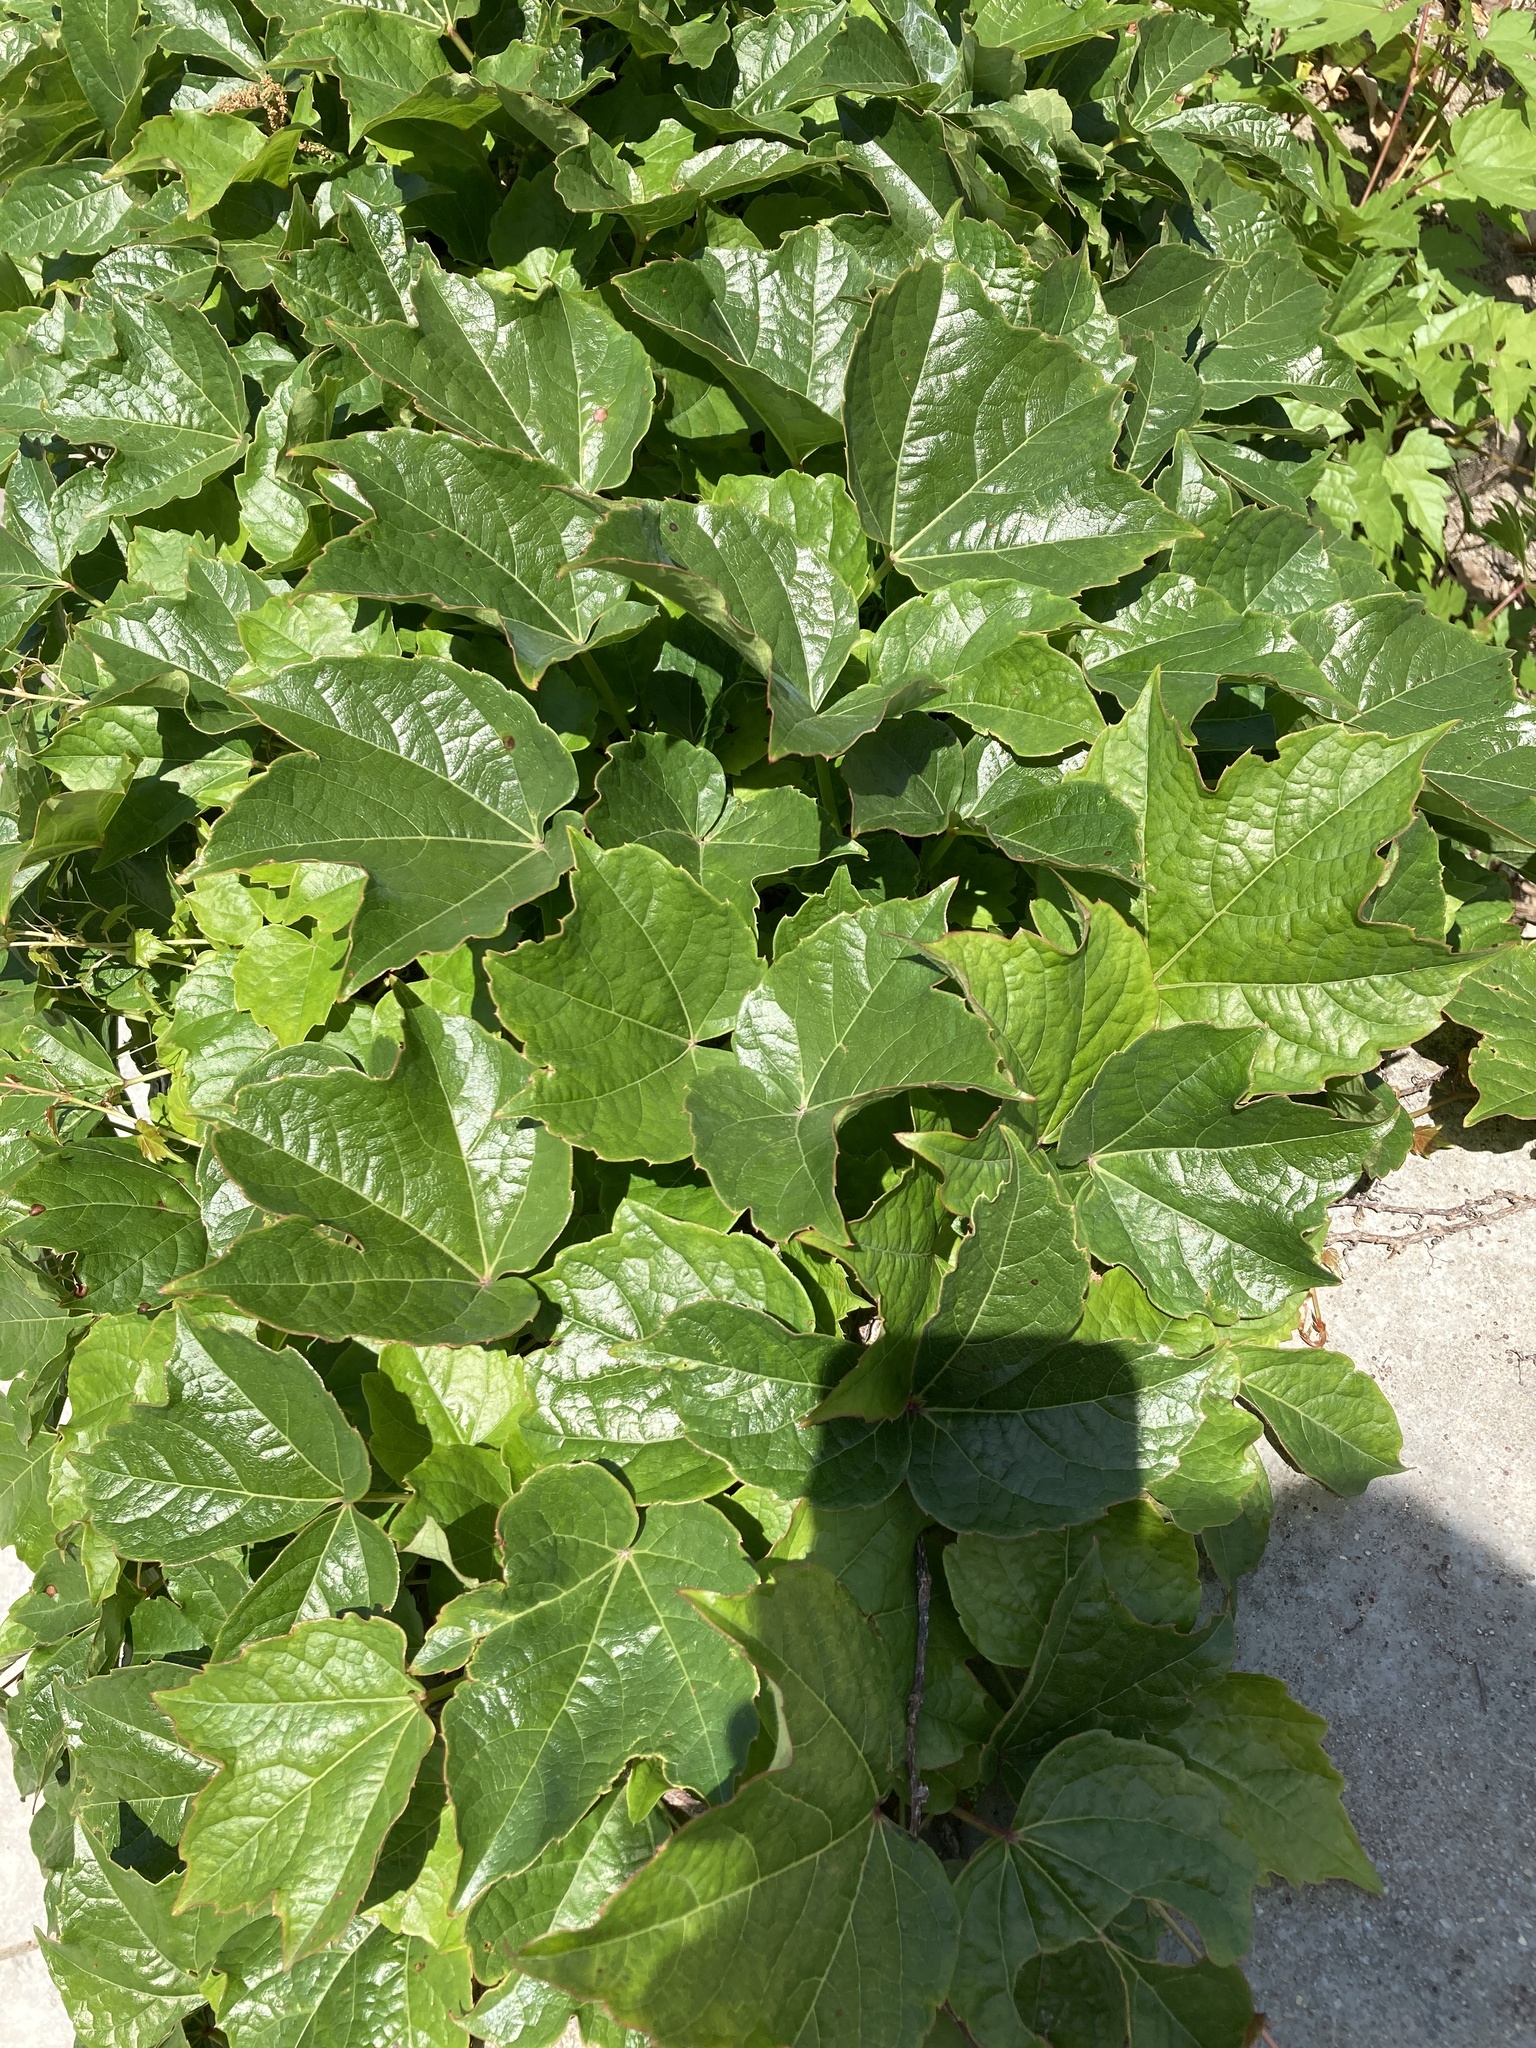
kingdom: Plantae
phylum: Tracheophyta
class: Magnoliopsida
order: Vitales
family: Vitaceae
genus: Parthenocissus
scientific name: Parthenocissus tricuspidata
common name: Boston ivy
